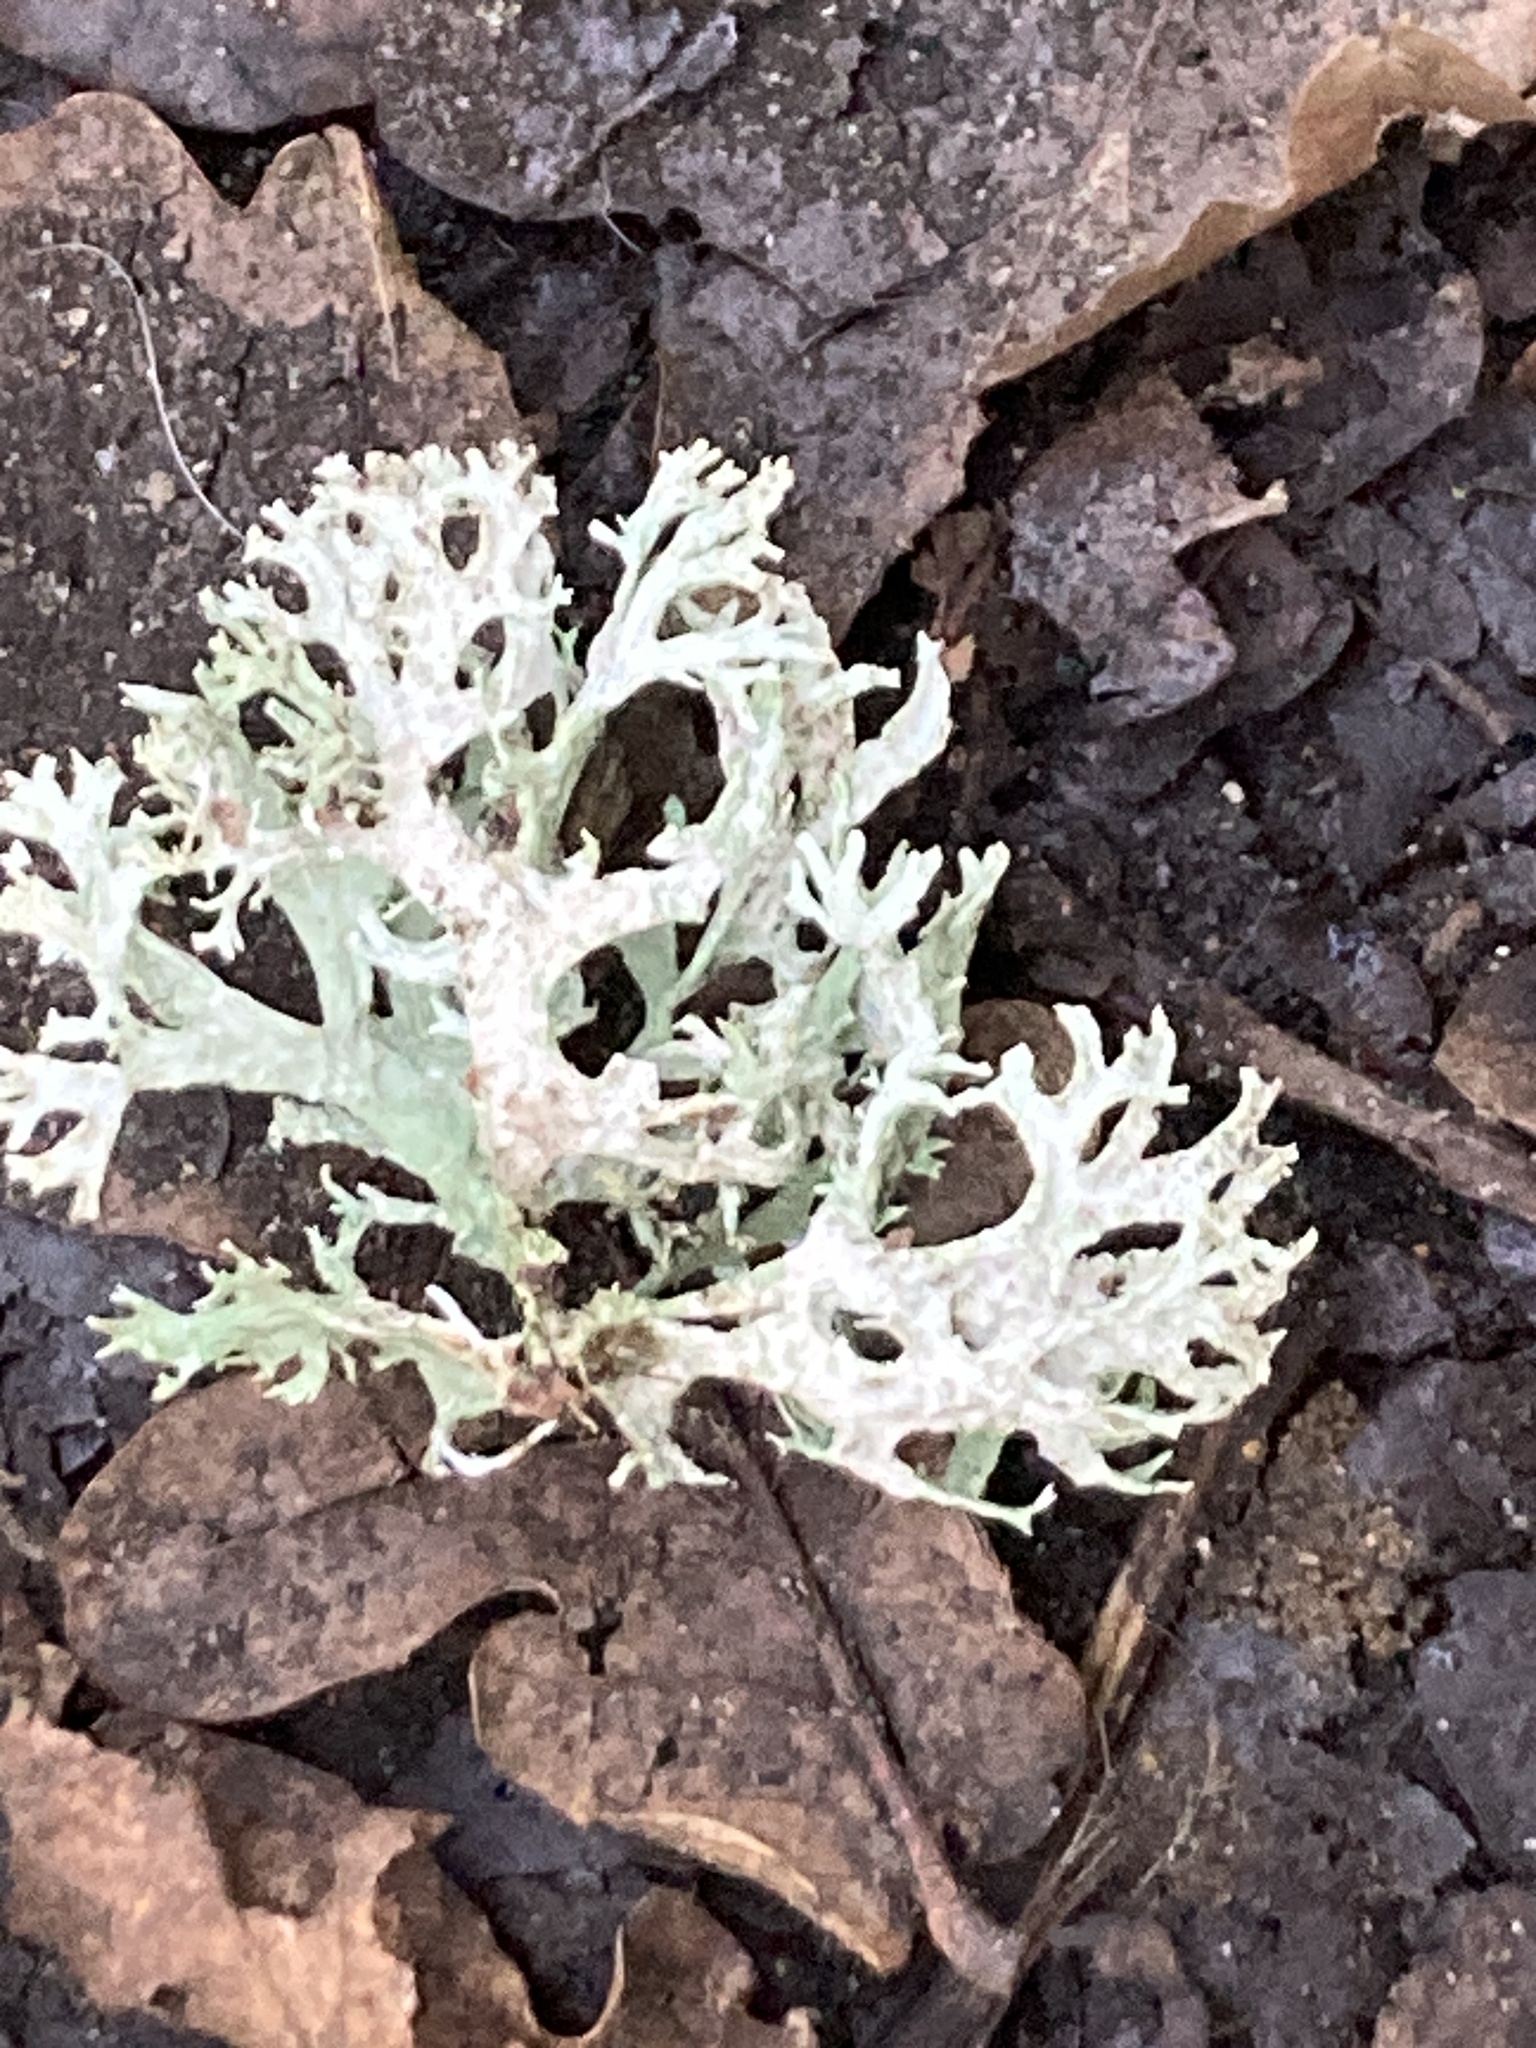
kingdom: Fungi
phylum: Ascomycota
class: Lecanoromycetes
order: Lecanorales
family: Parmeliaceae
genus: Evernia
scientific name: Evernia prunastri
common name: Oak moss
